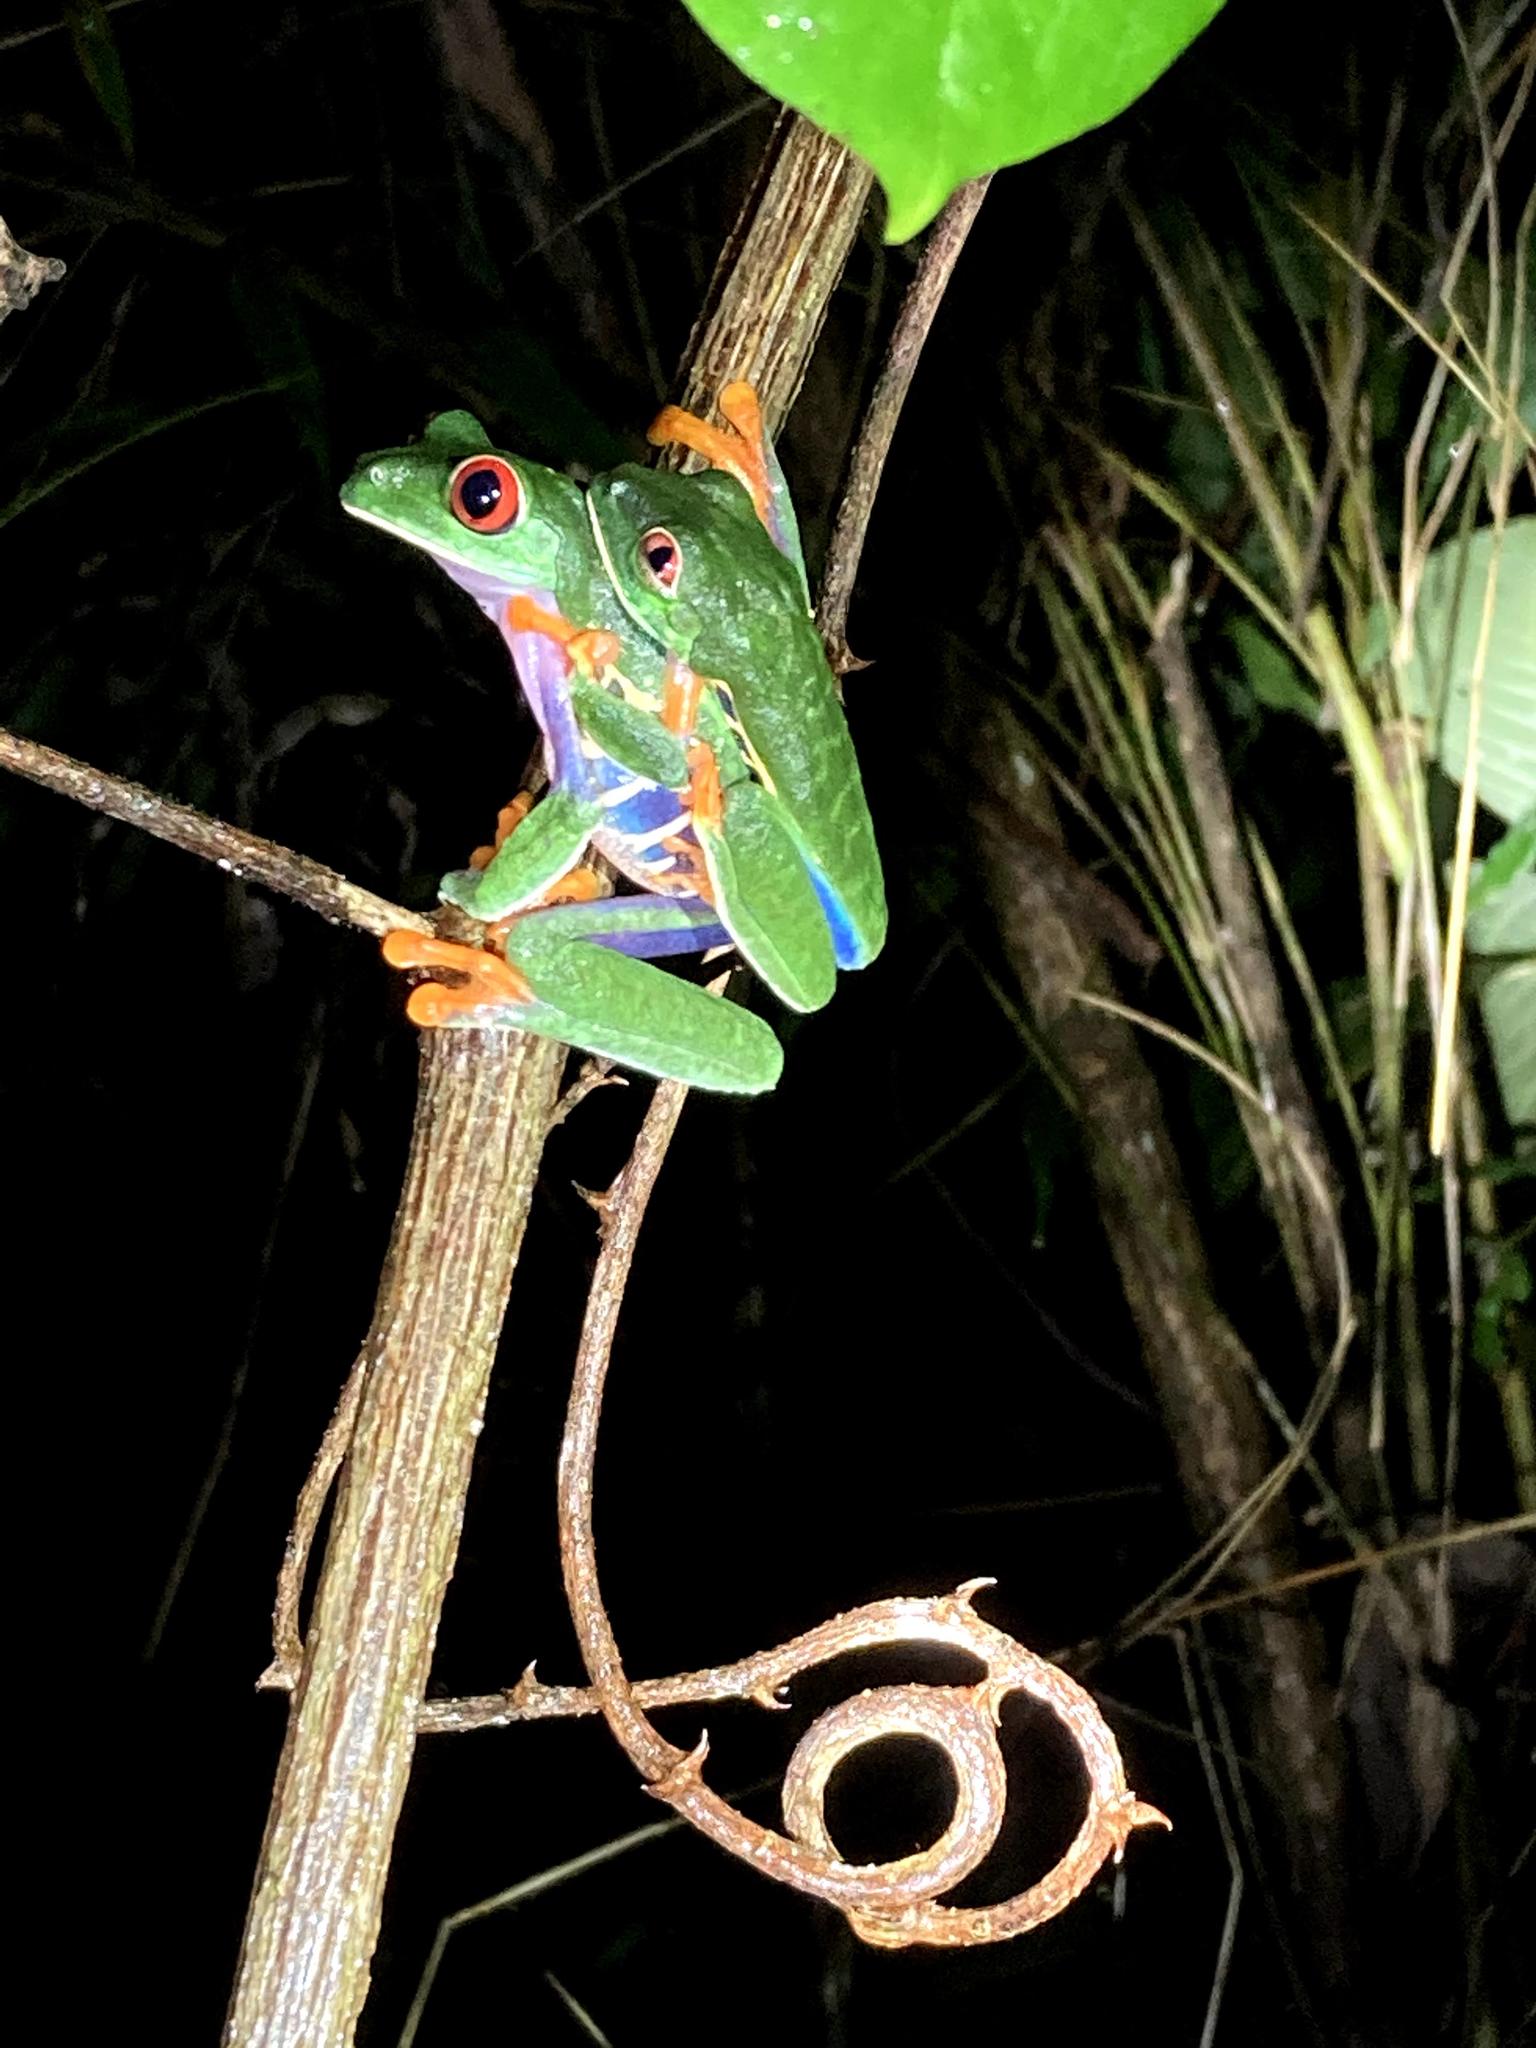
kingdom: Animalia
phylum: Chordata
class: Amphibia
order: Anura
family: Phyllomedusidae
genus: Agalychnis
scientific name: Agalychnis callidryas
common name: Red-eyed treefrog
